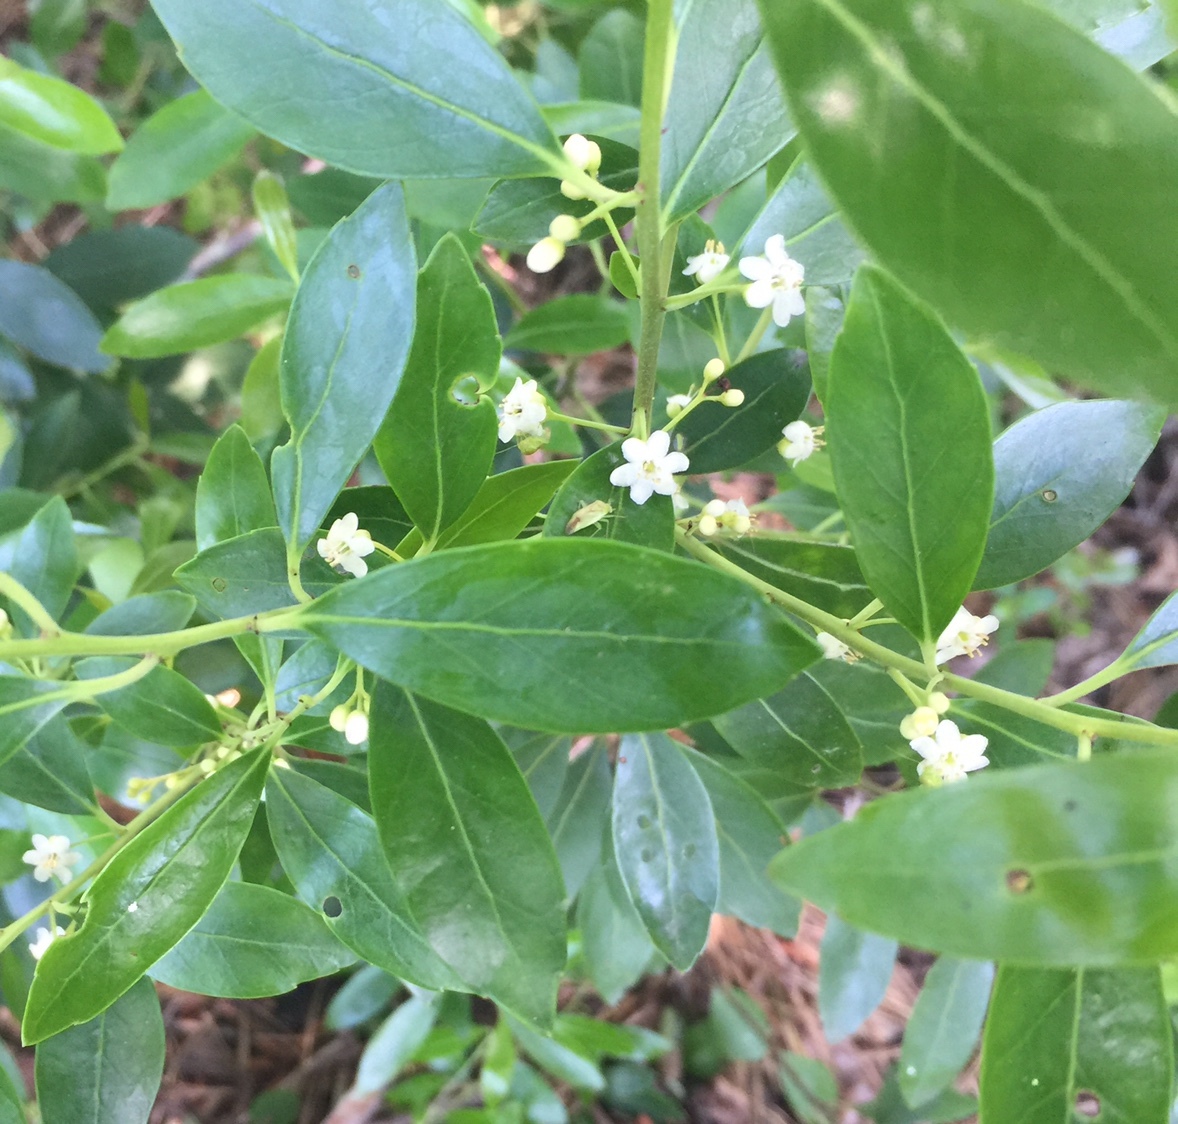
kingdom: Plantae
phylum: Tracheophyta
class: Magnoliopsida
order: Aquifoliales
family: Aquifoliaceae
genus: Ilex
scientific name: Ilex glabra
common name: Bitter gallberry
